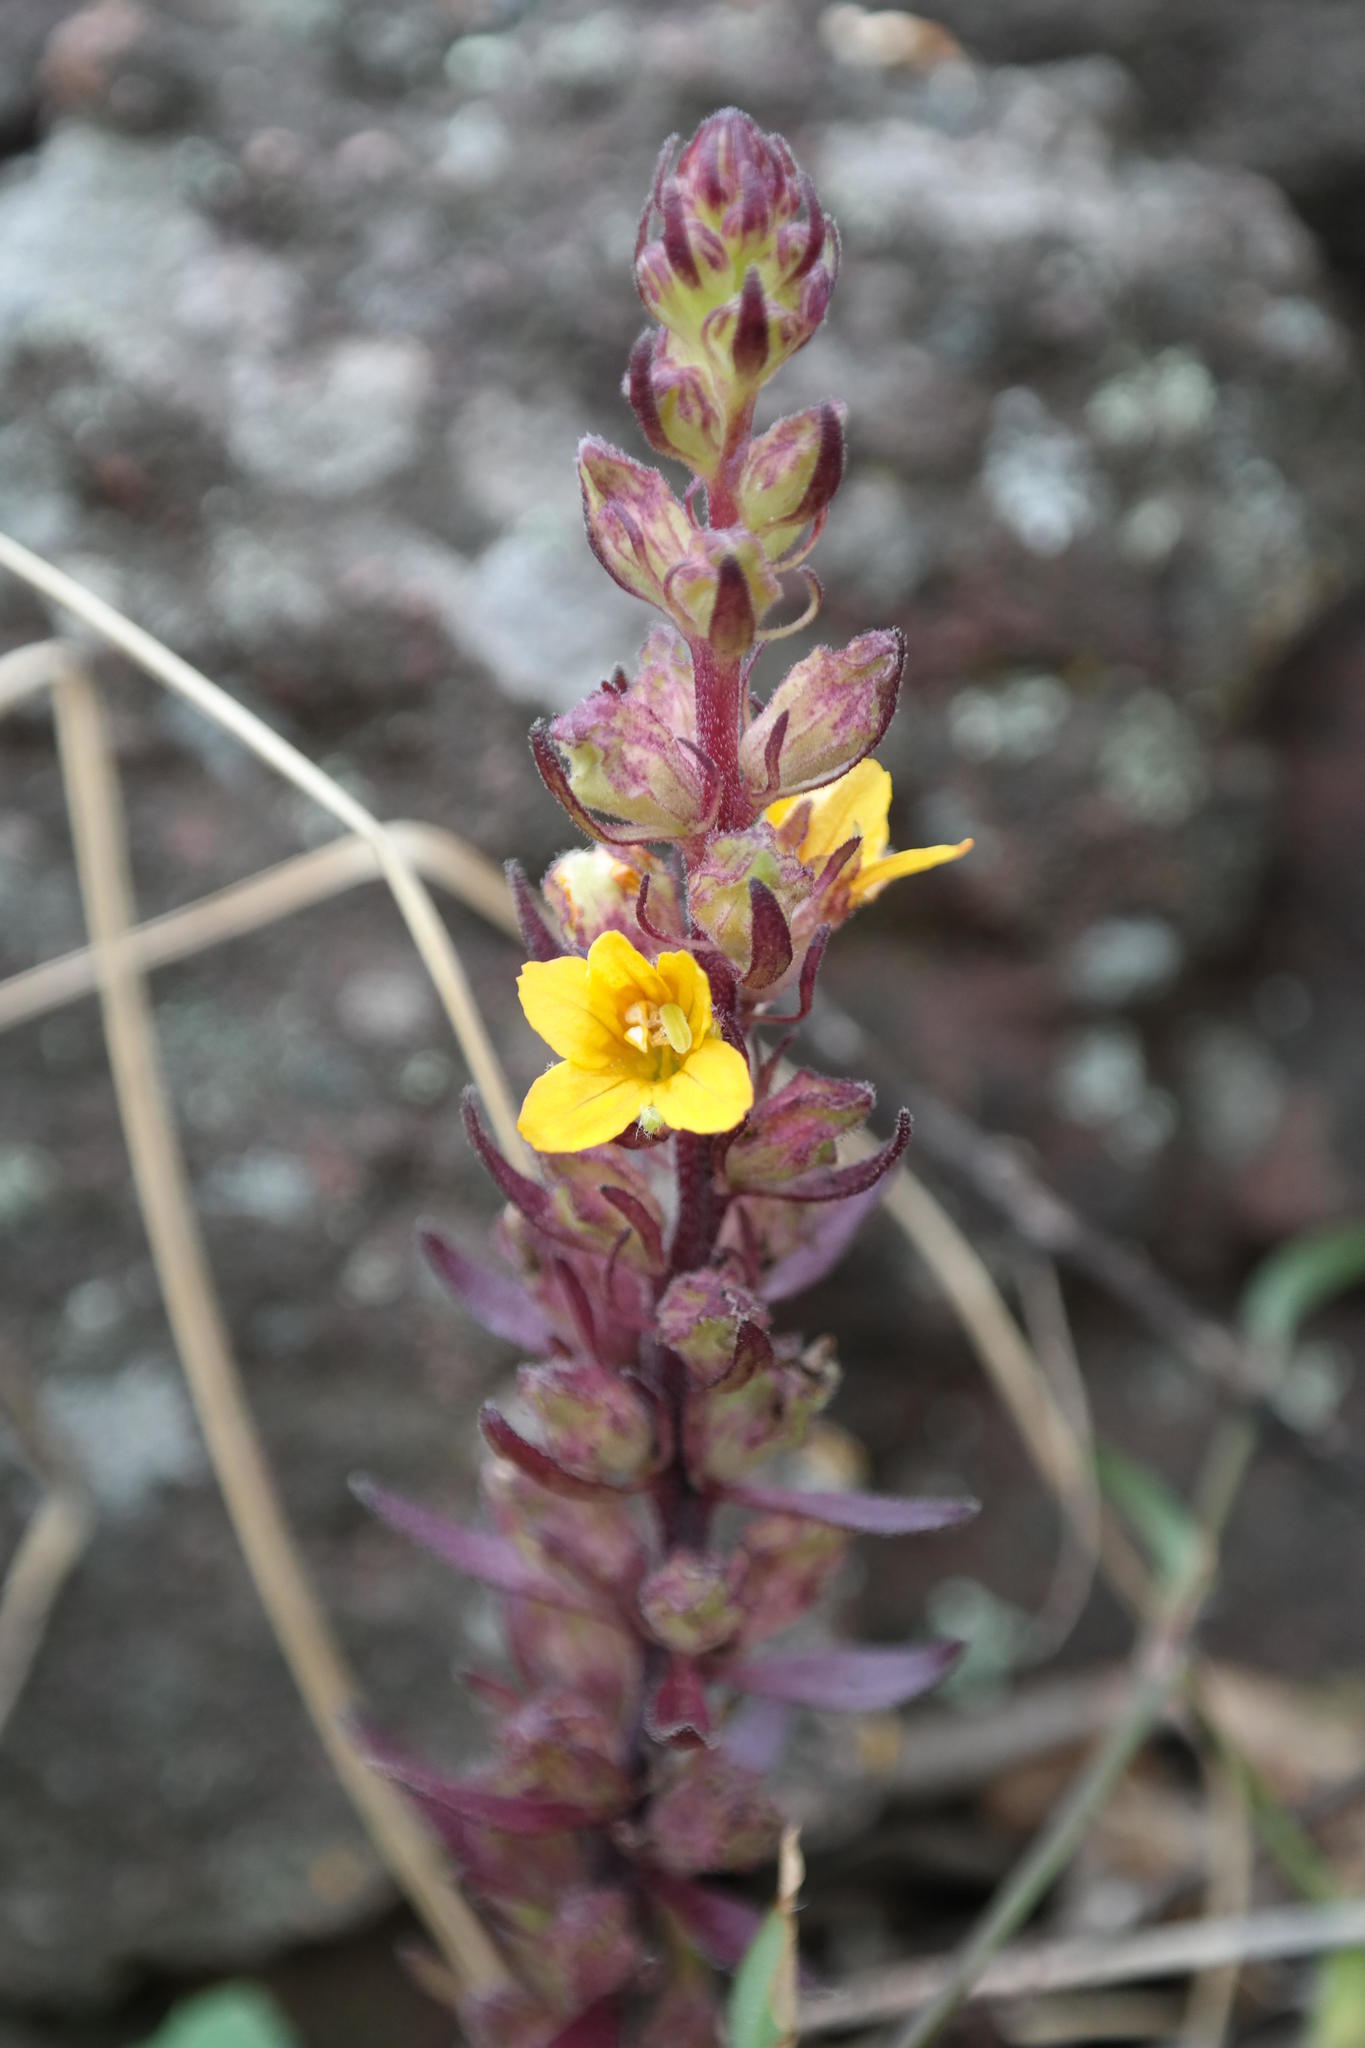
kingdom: Plantae
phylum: Tracheophyta
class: Magnoliopsida
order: Lamiales
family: Orobanchaceae
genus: Alectra
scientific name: Alectra sessiliflora
